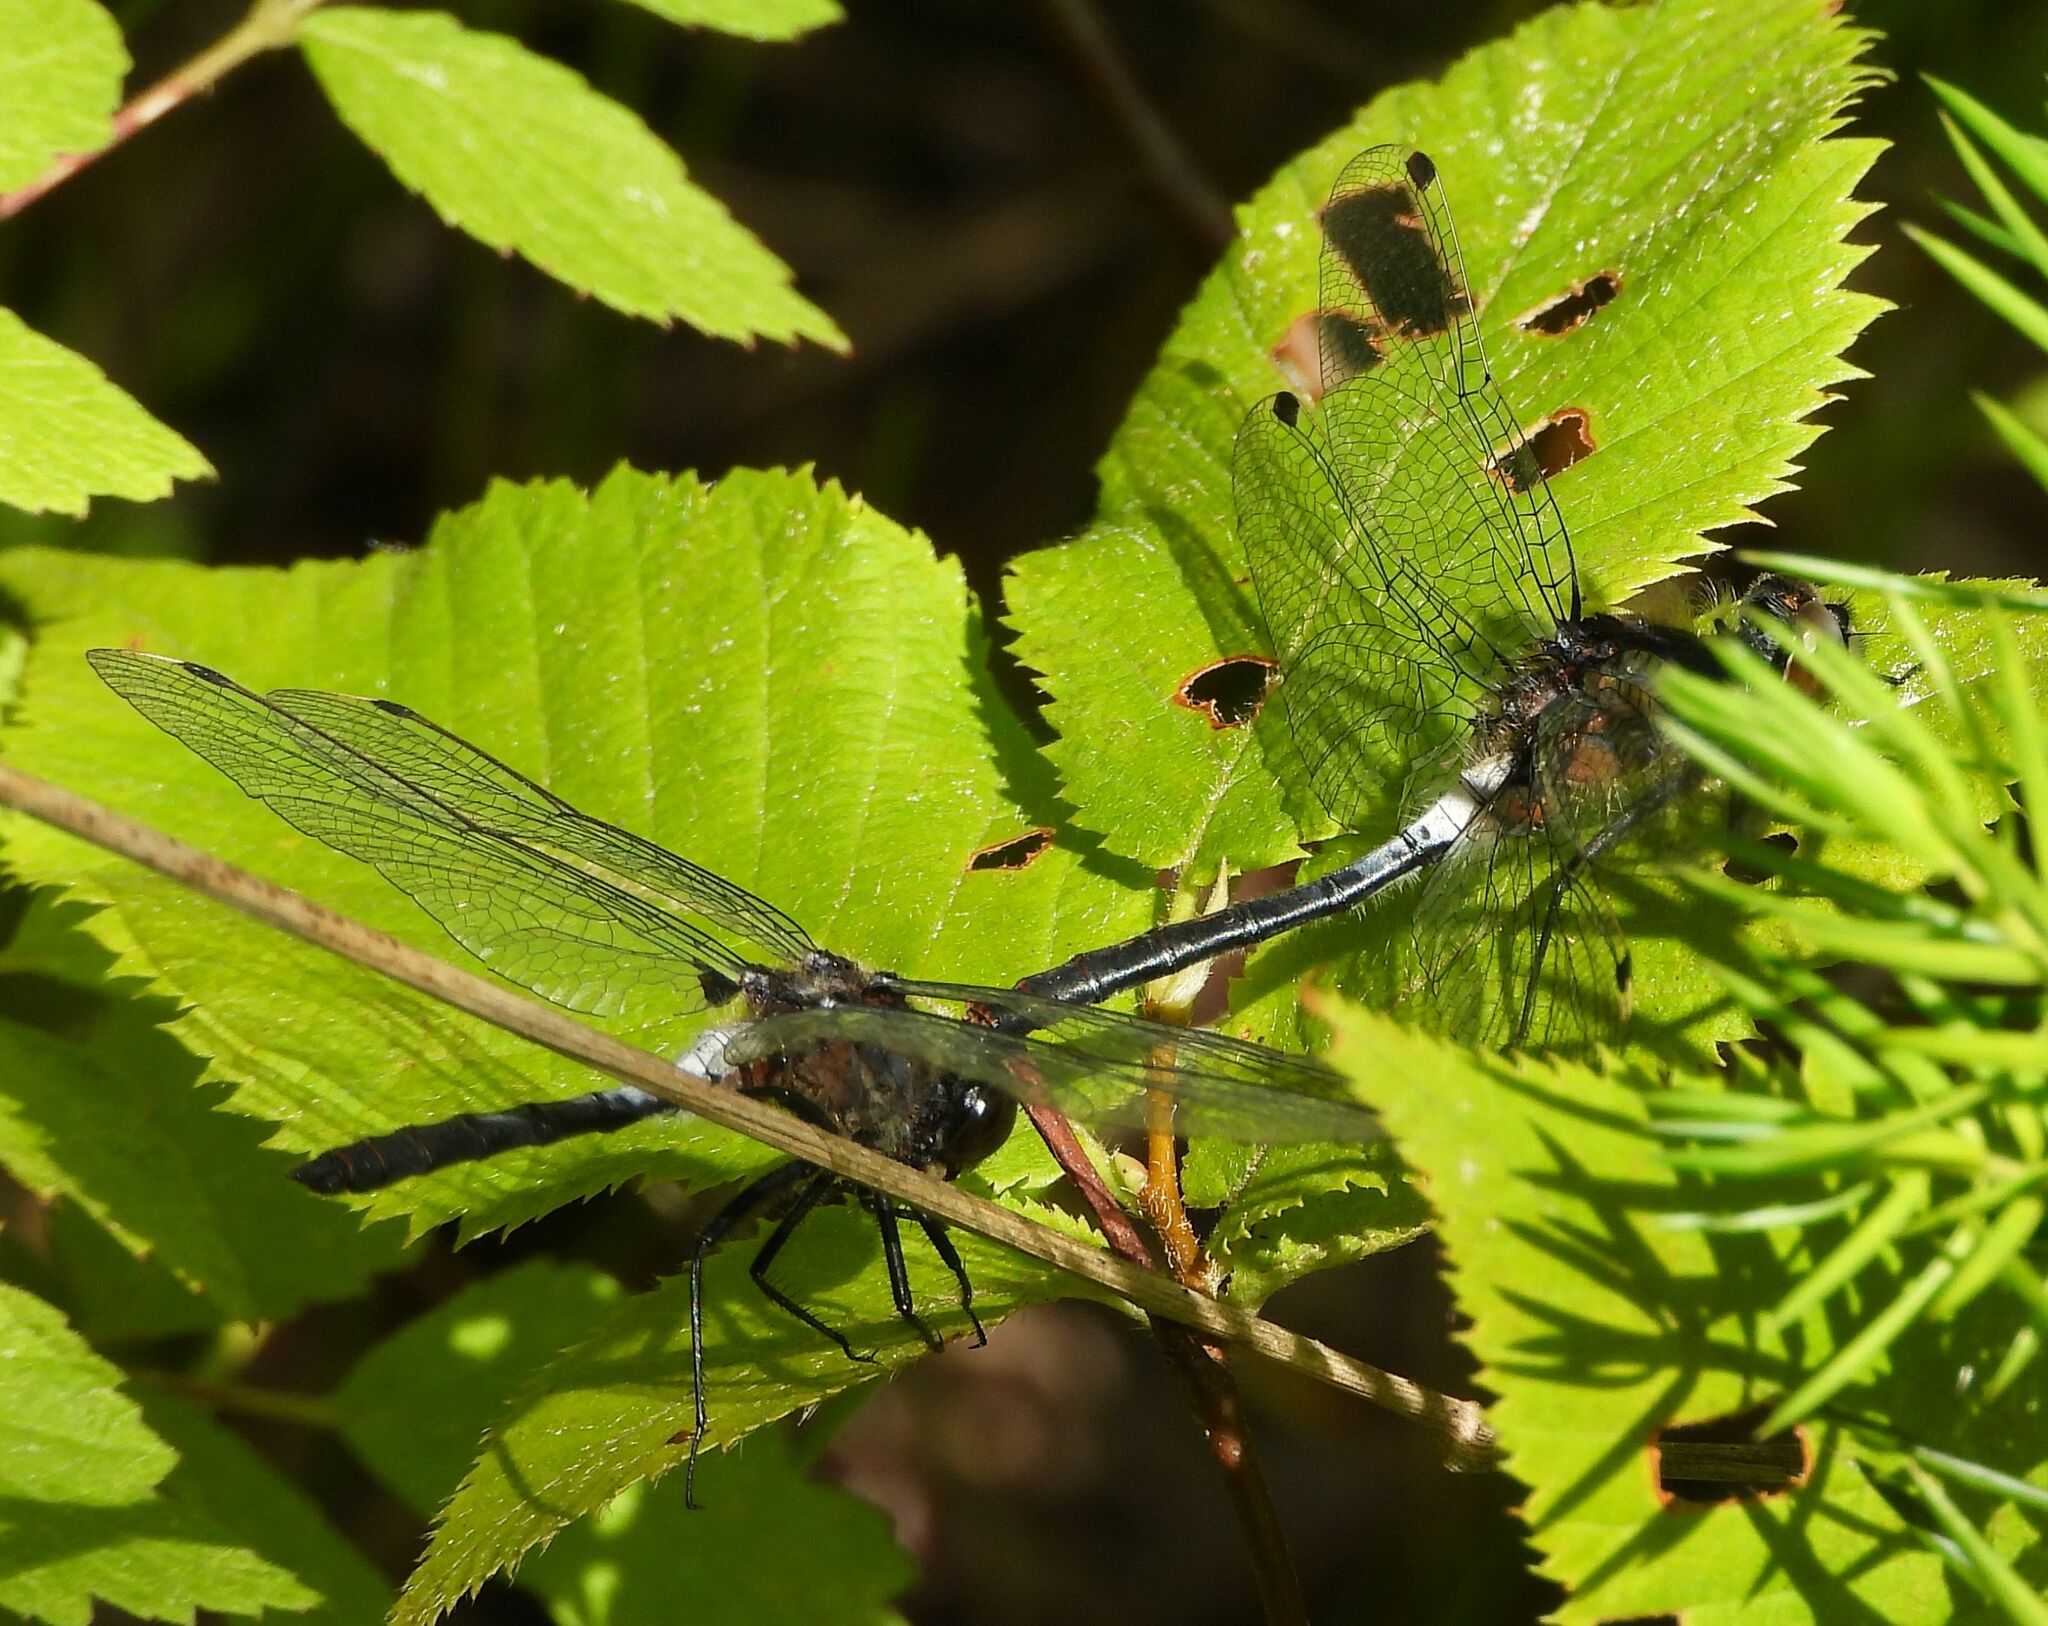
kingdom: Animalia
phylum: Arthropoda
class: Insecta
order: Odonata
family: Libellulidae
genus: Leucorrhinia
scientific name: Leucorrhinia proxima
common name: Belted whiteface
